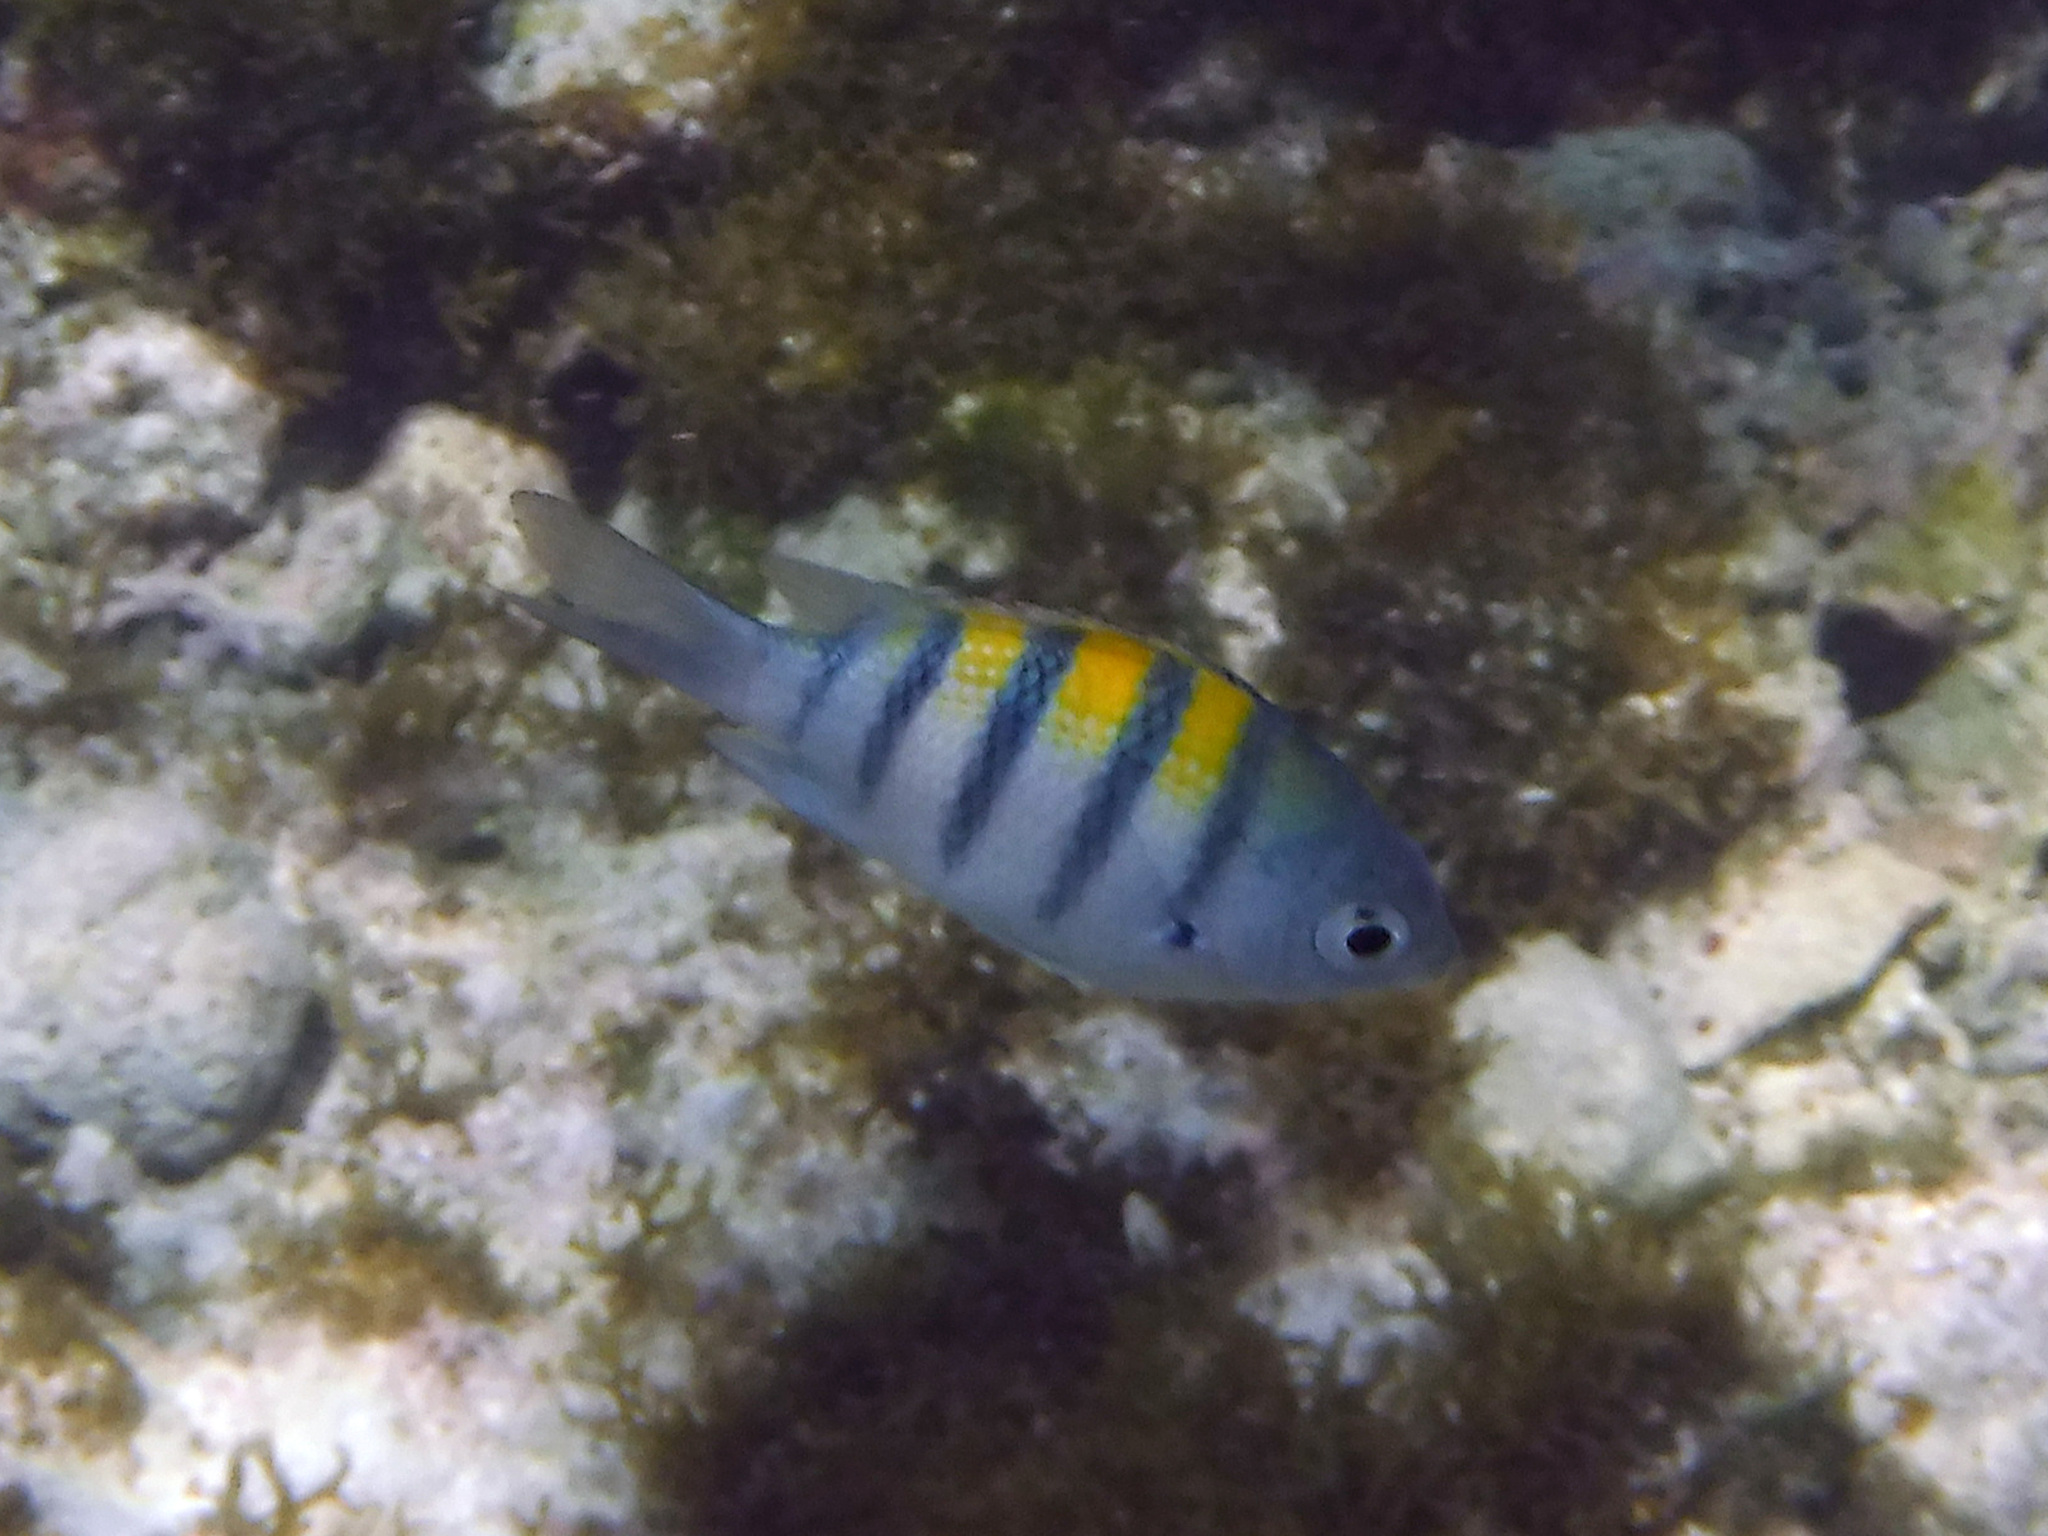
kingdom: Animalia
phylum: Chordata
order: Perciformes
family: Pomacentridae
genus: Abudefduf
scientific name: Abudefduf saxatilis
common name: Sergeant major
